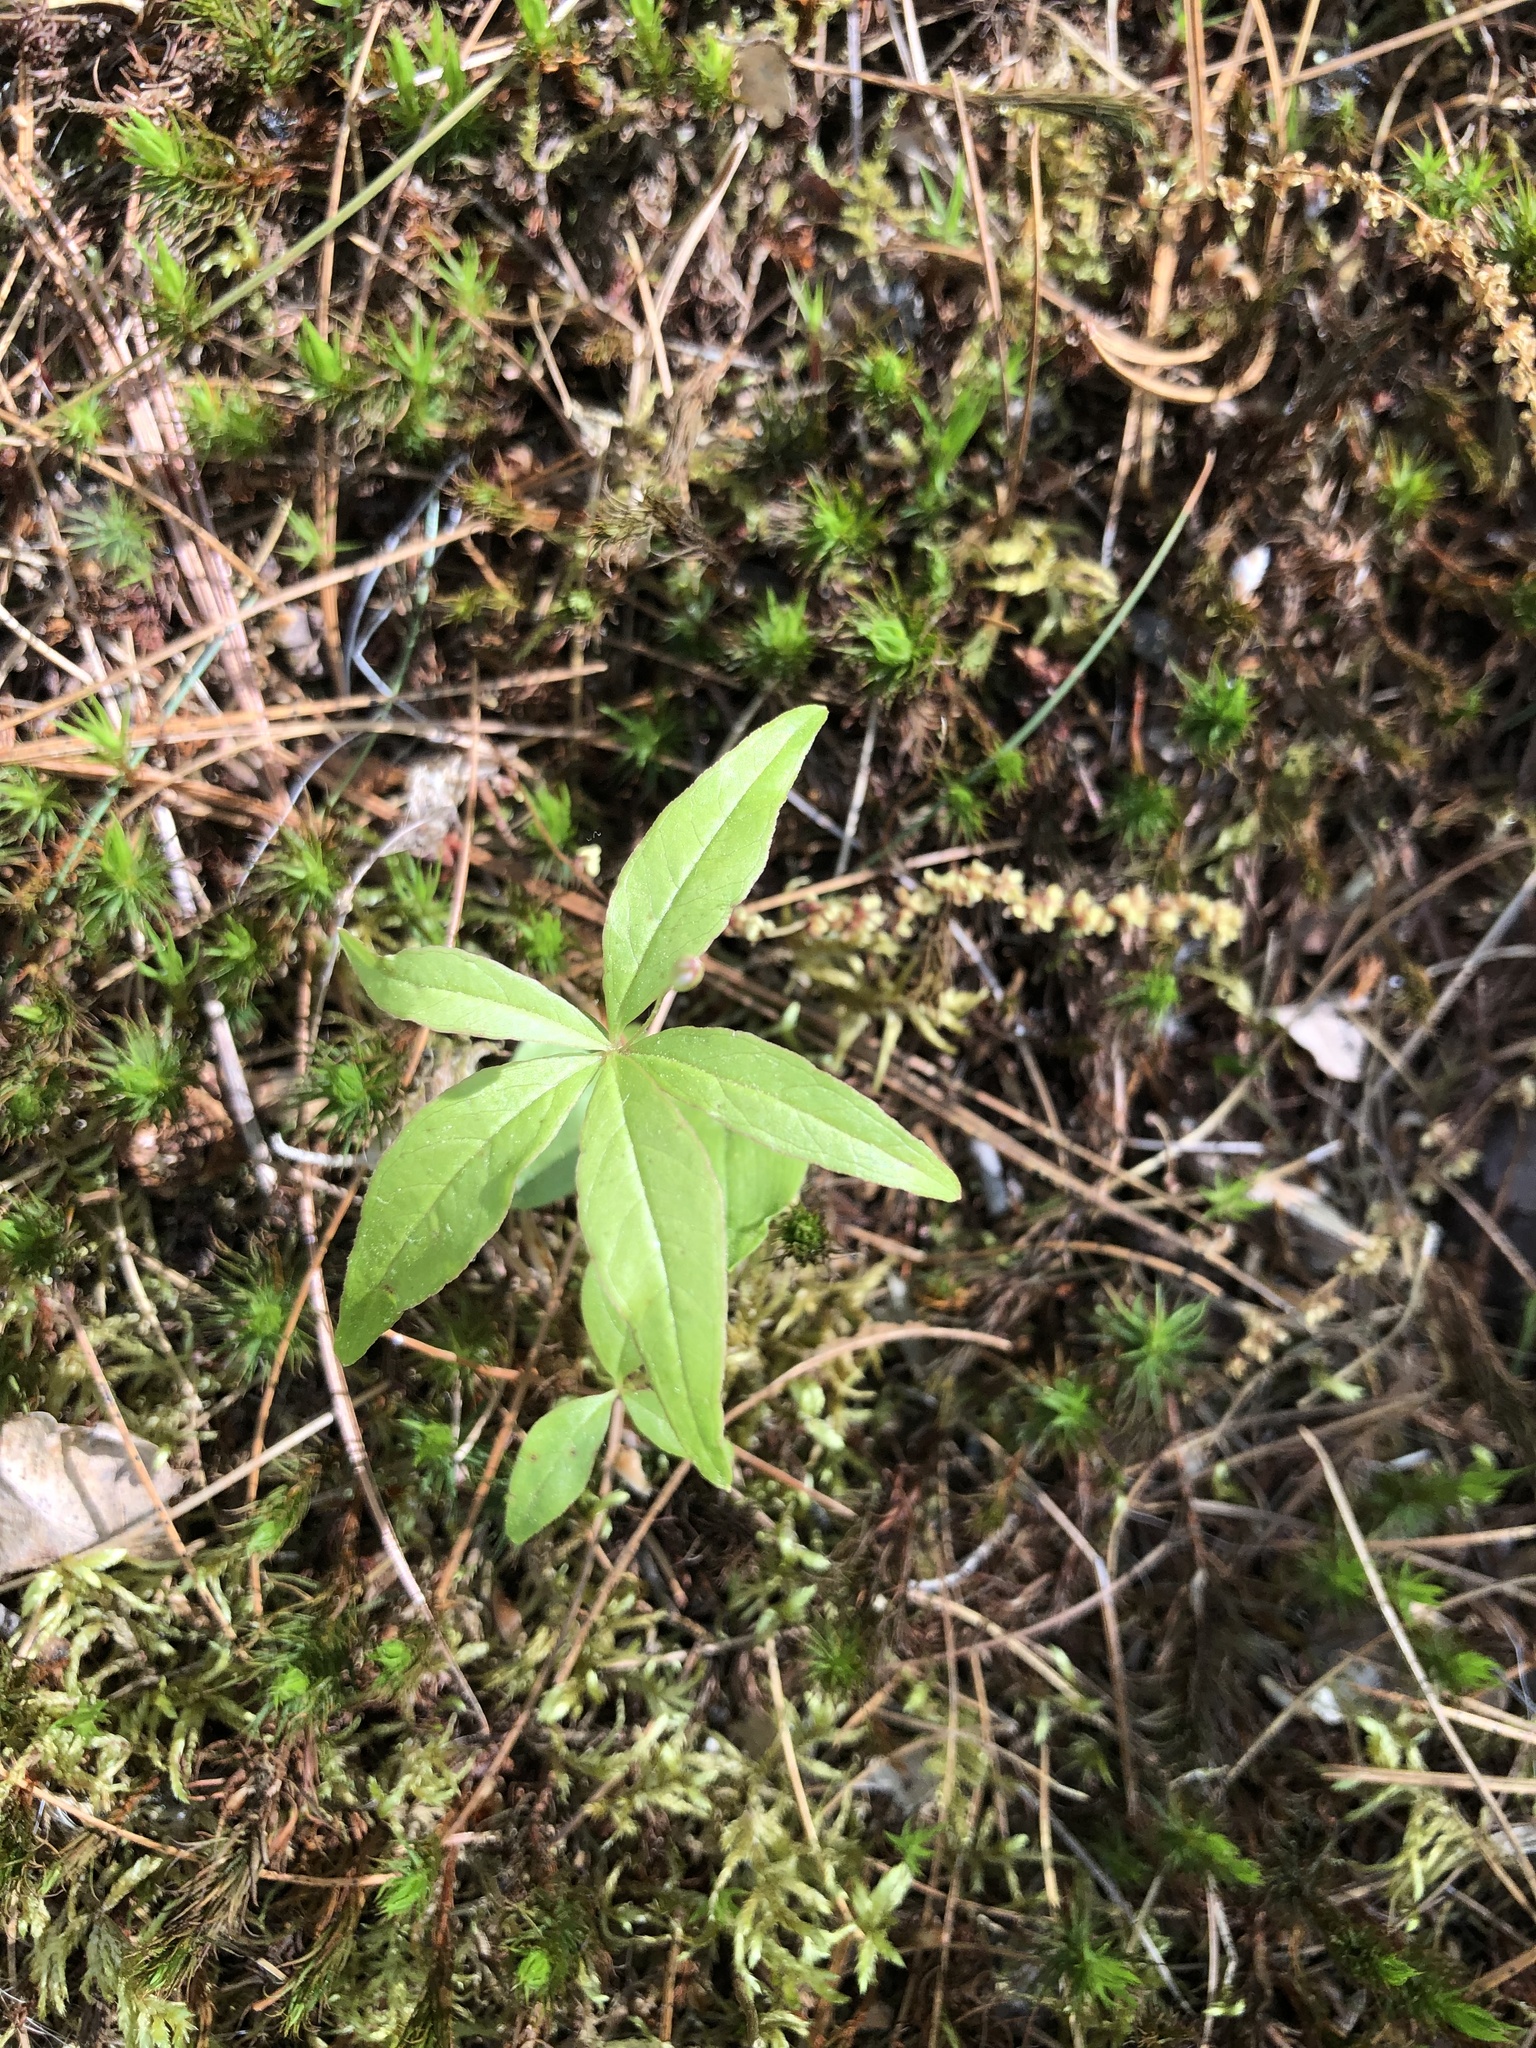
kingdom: Plantae
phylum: Tracheophyta
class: Magnoliopsida
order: Ericales
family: Primulaceae
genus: Lysimachia
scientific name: Lysimachia borealis
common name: American starflower
